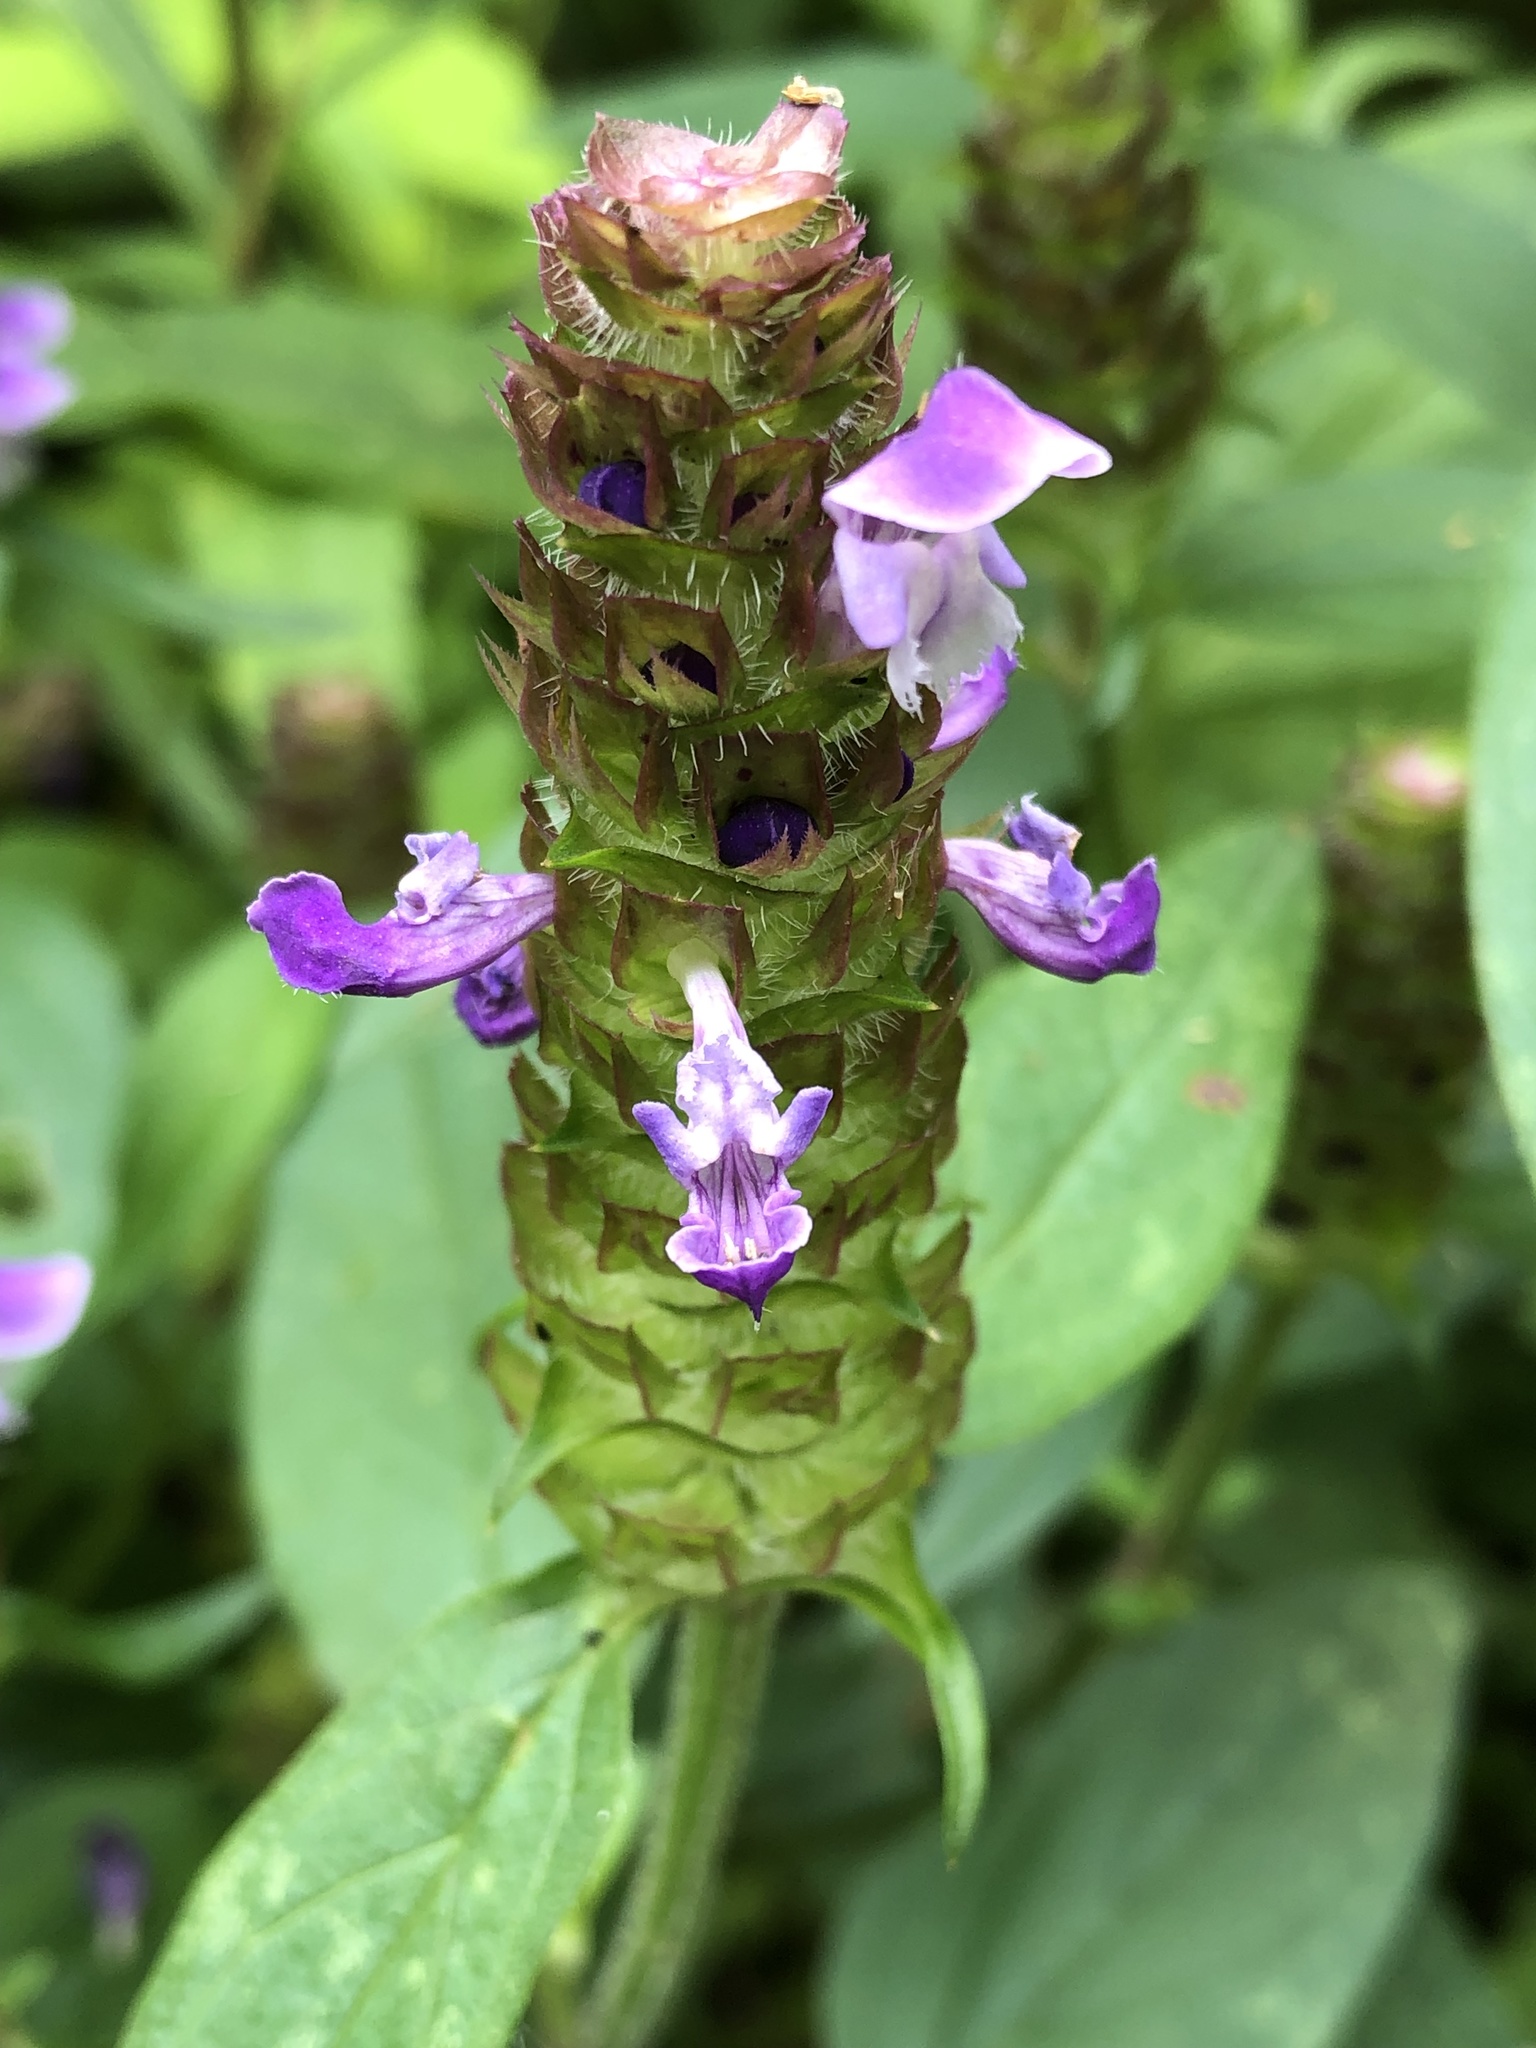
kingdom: Plantae
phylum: Tracheophyta
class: Magnoliopsida
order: Lamiales
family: Lamiaceae
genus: Prunella
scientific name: Prunella vulgaris
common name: Heal-all
